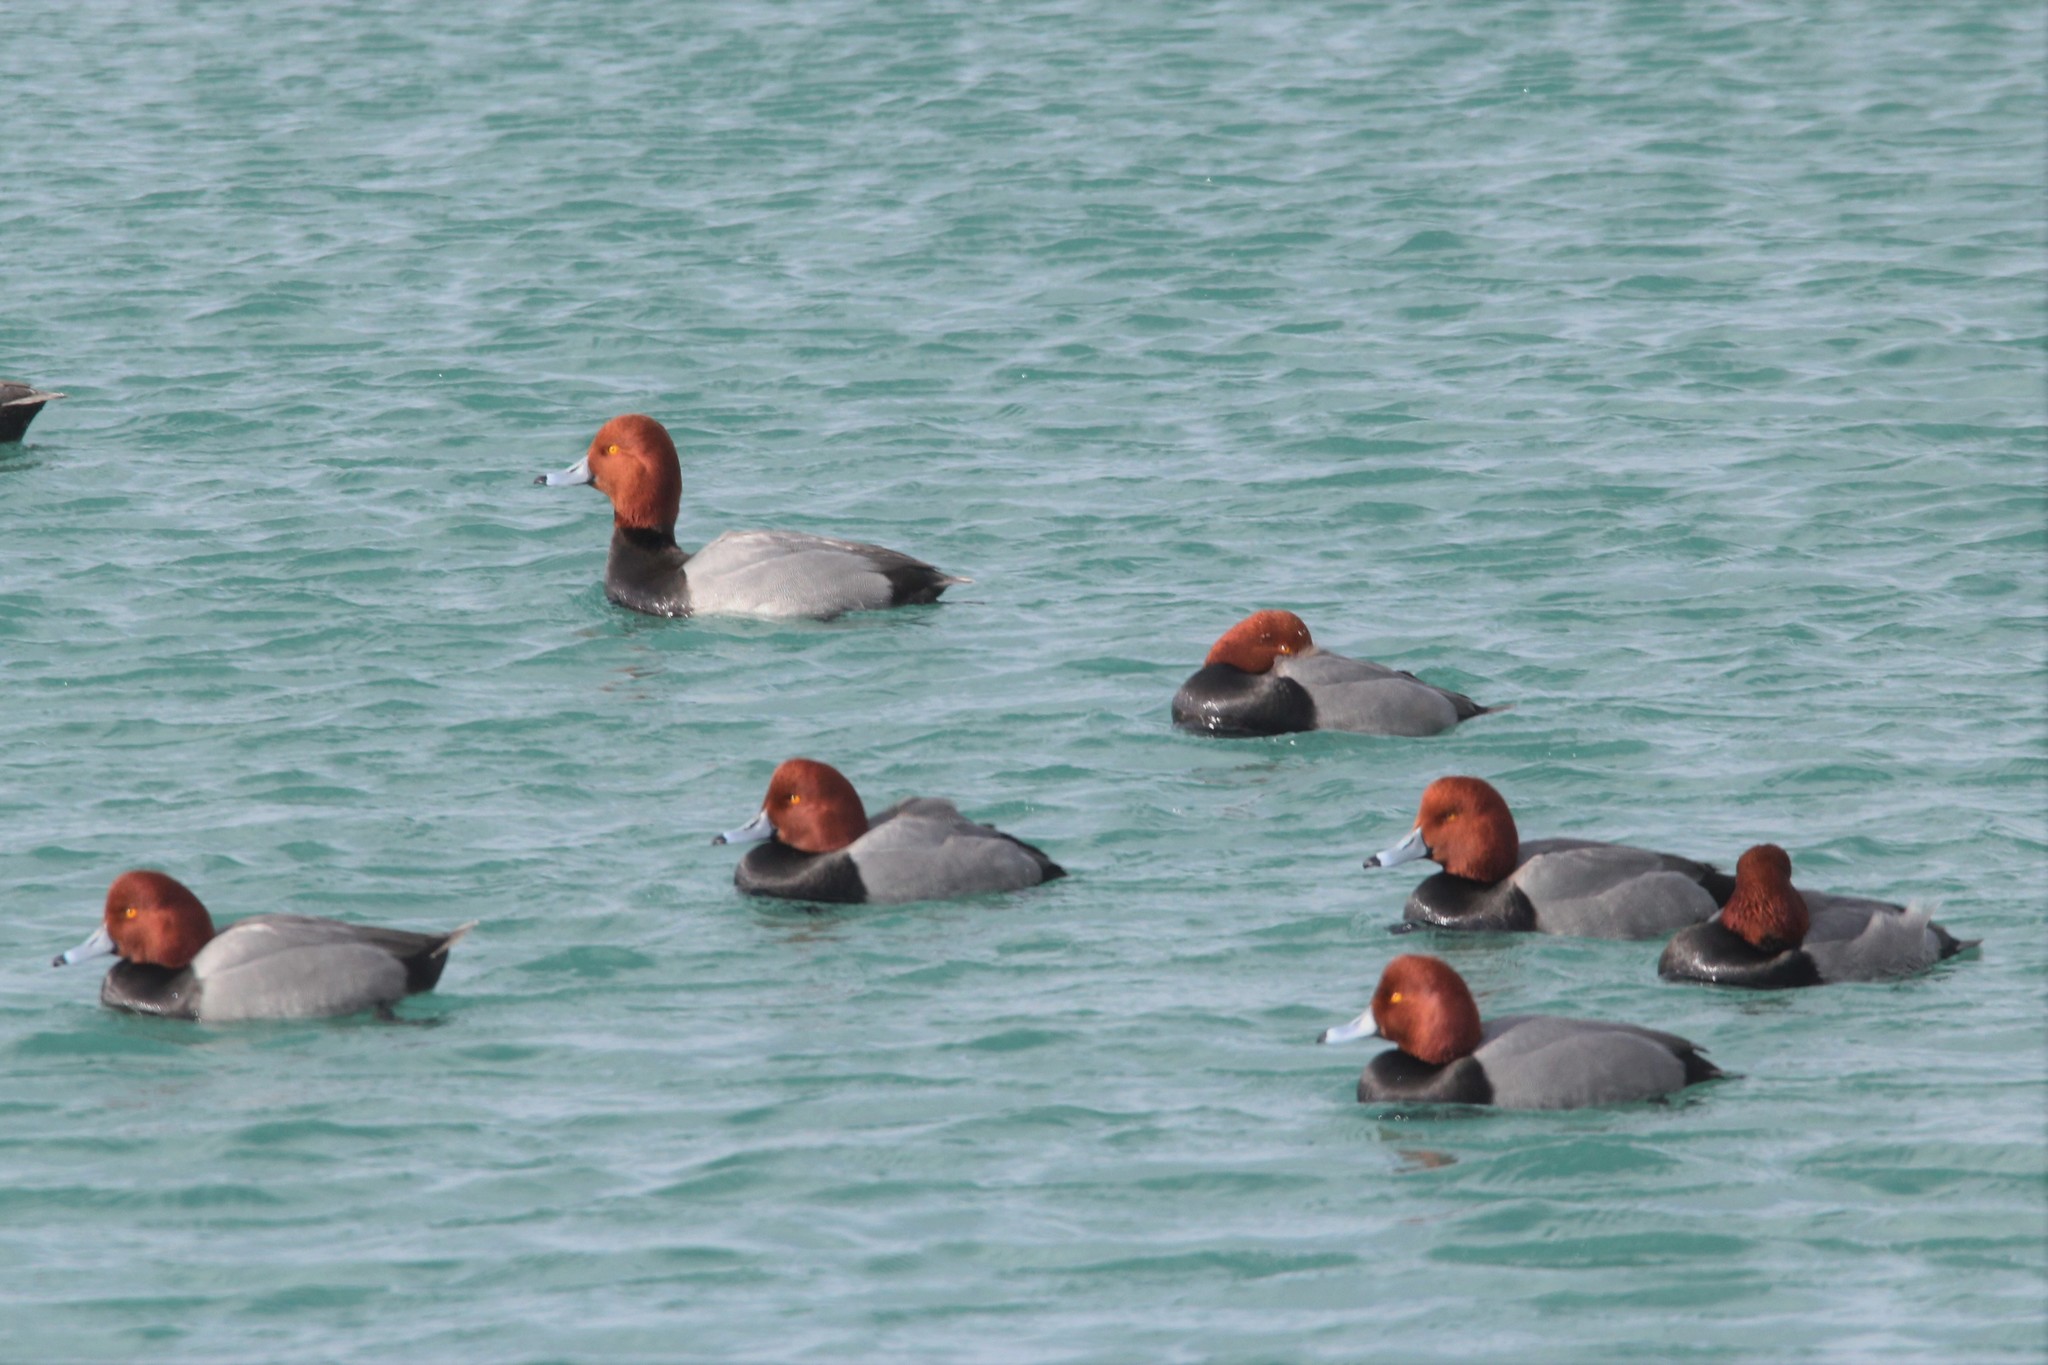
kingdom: Animalia
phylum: Chordata
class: Aves
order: Anseriformes
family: Anatidae
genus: Aythya
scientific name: Aythya americana
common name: Redhead
